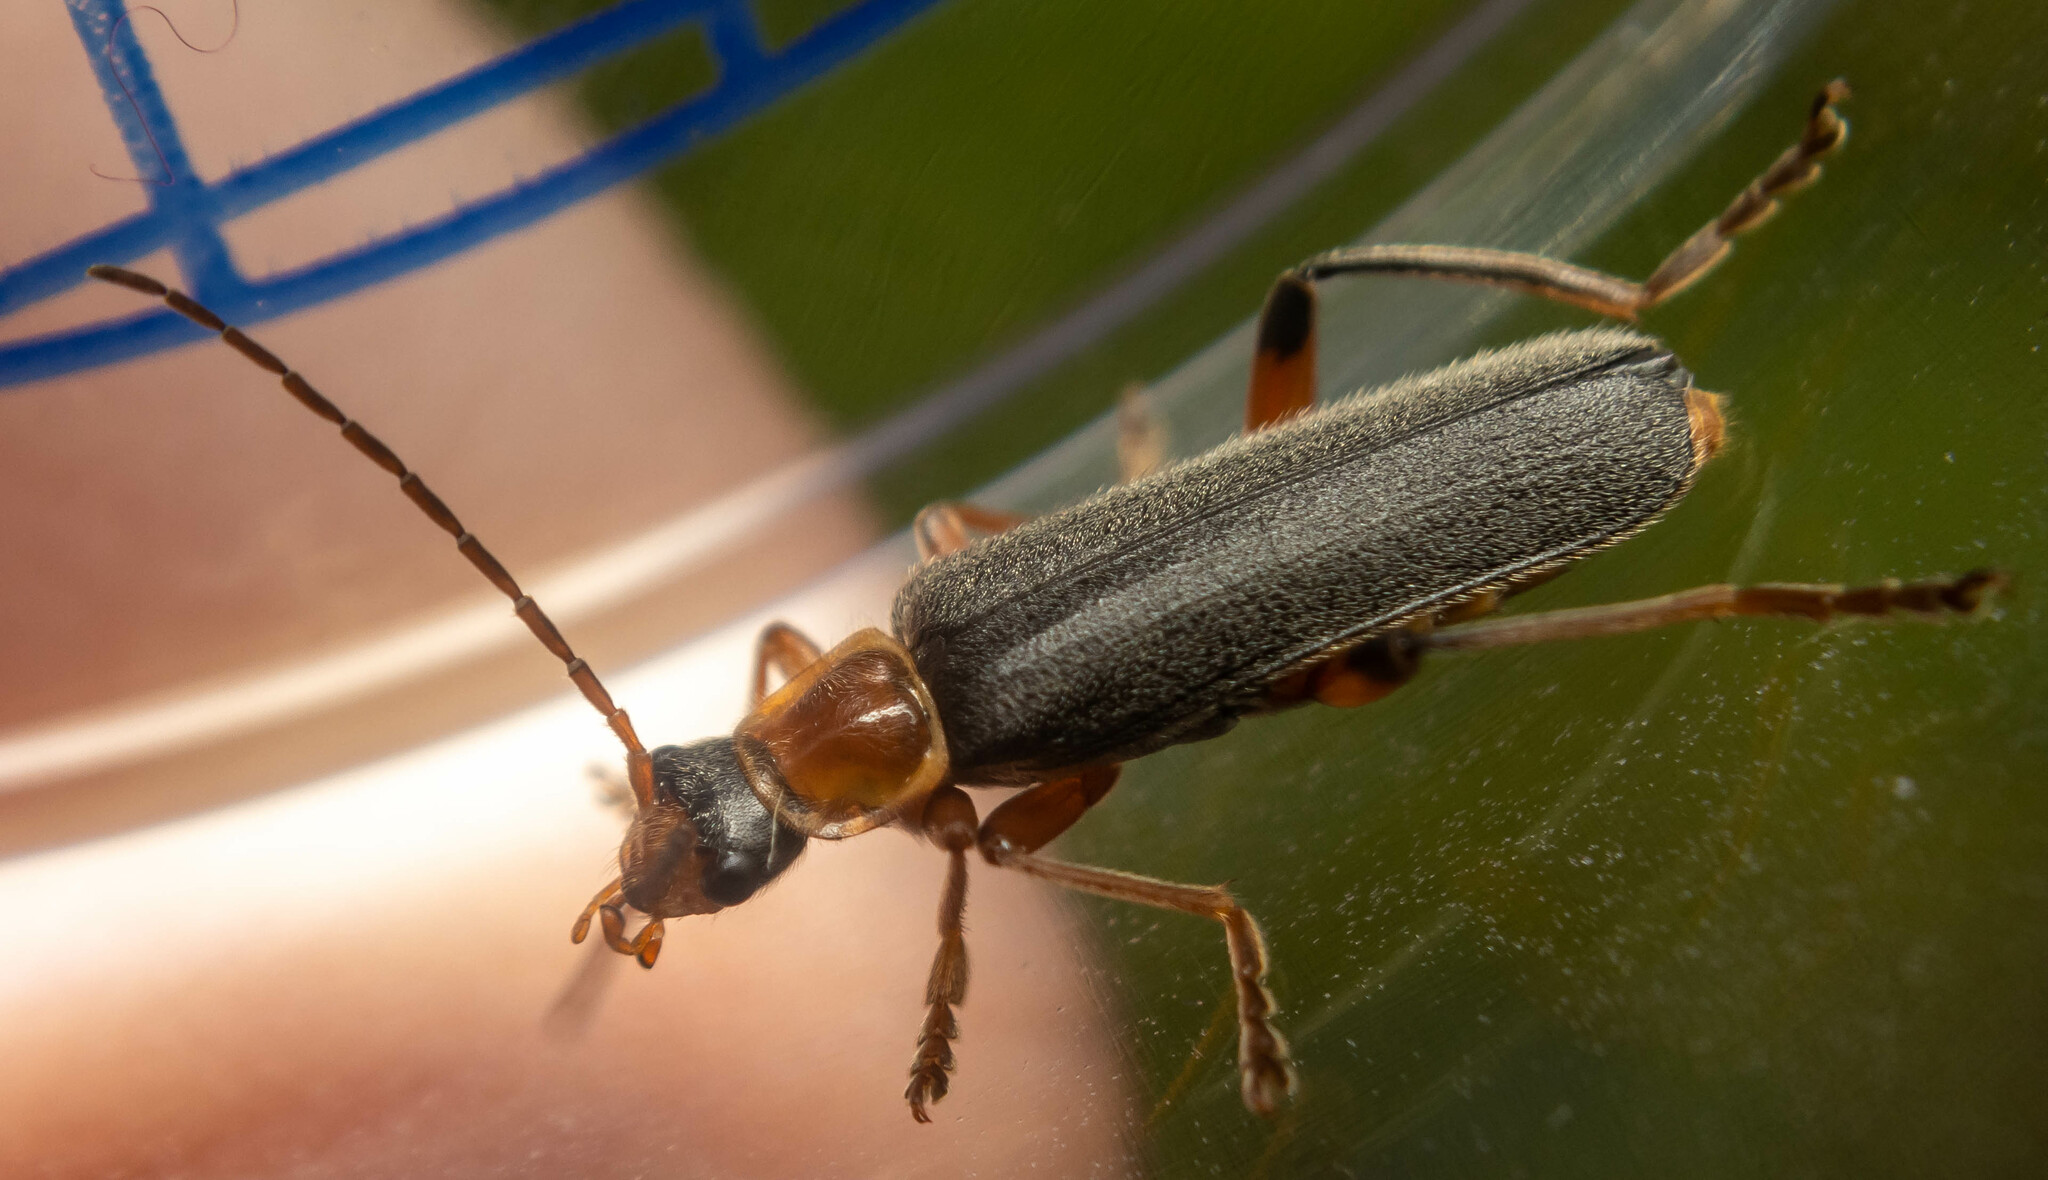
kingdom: Animalia
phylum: Arthropoda
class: Insecta
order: Coleoptera
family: Cantharidae
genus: Cantharis
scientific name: Cantharis nigricans
